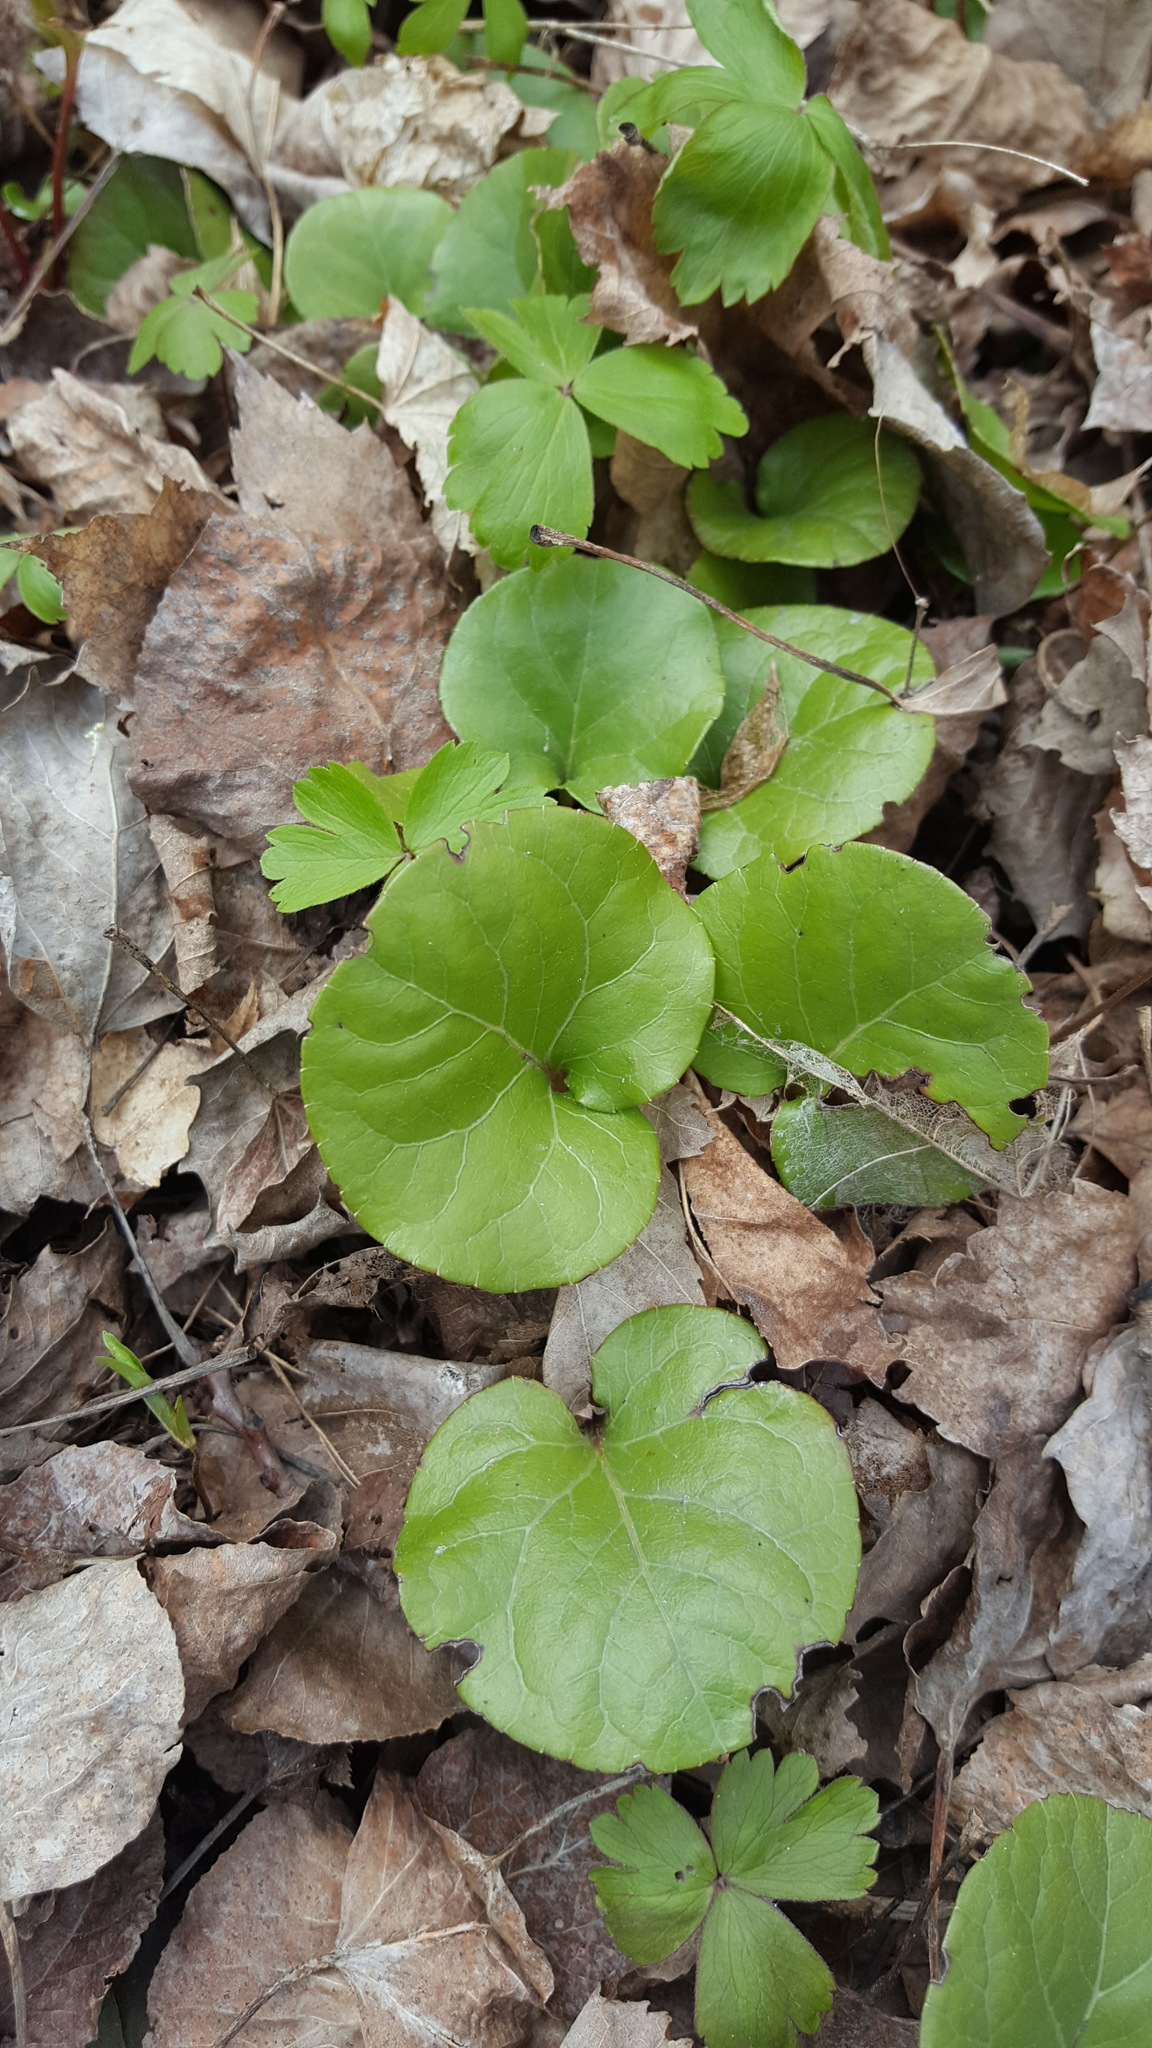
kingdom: Plantae
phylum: Tracheophyta
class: Magnoliopsida
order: Ericales
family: Ericaceae
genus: Pyrola
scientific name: Pyrola asarifolia
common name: Bog wintergreen
